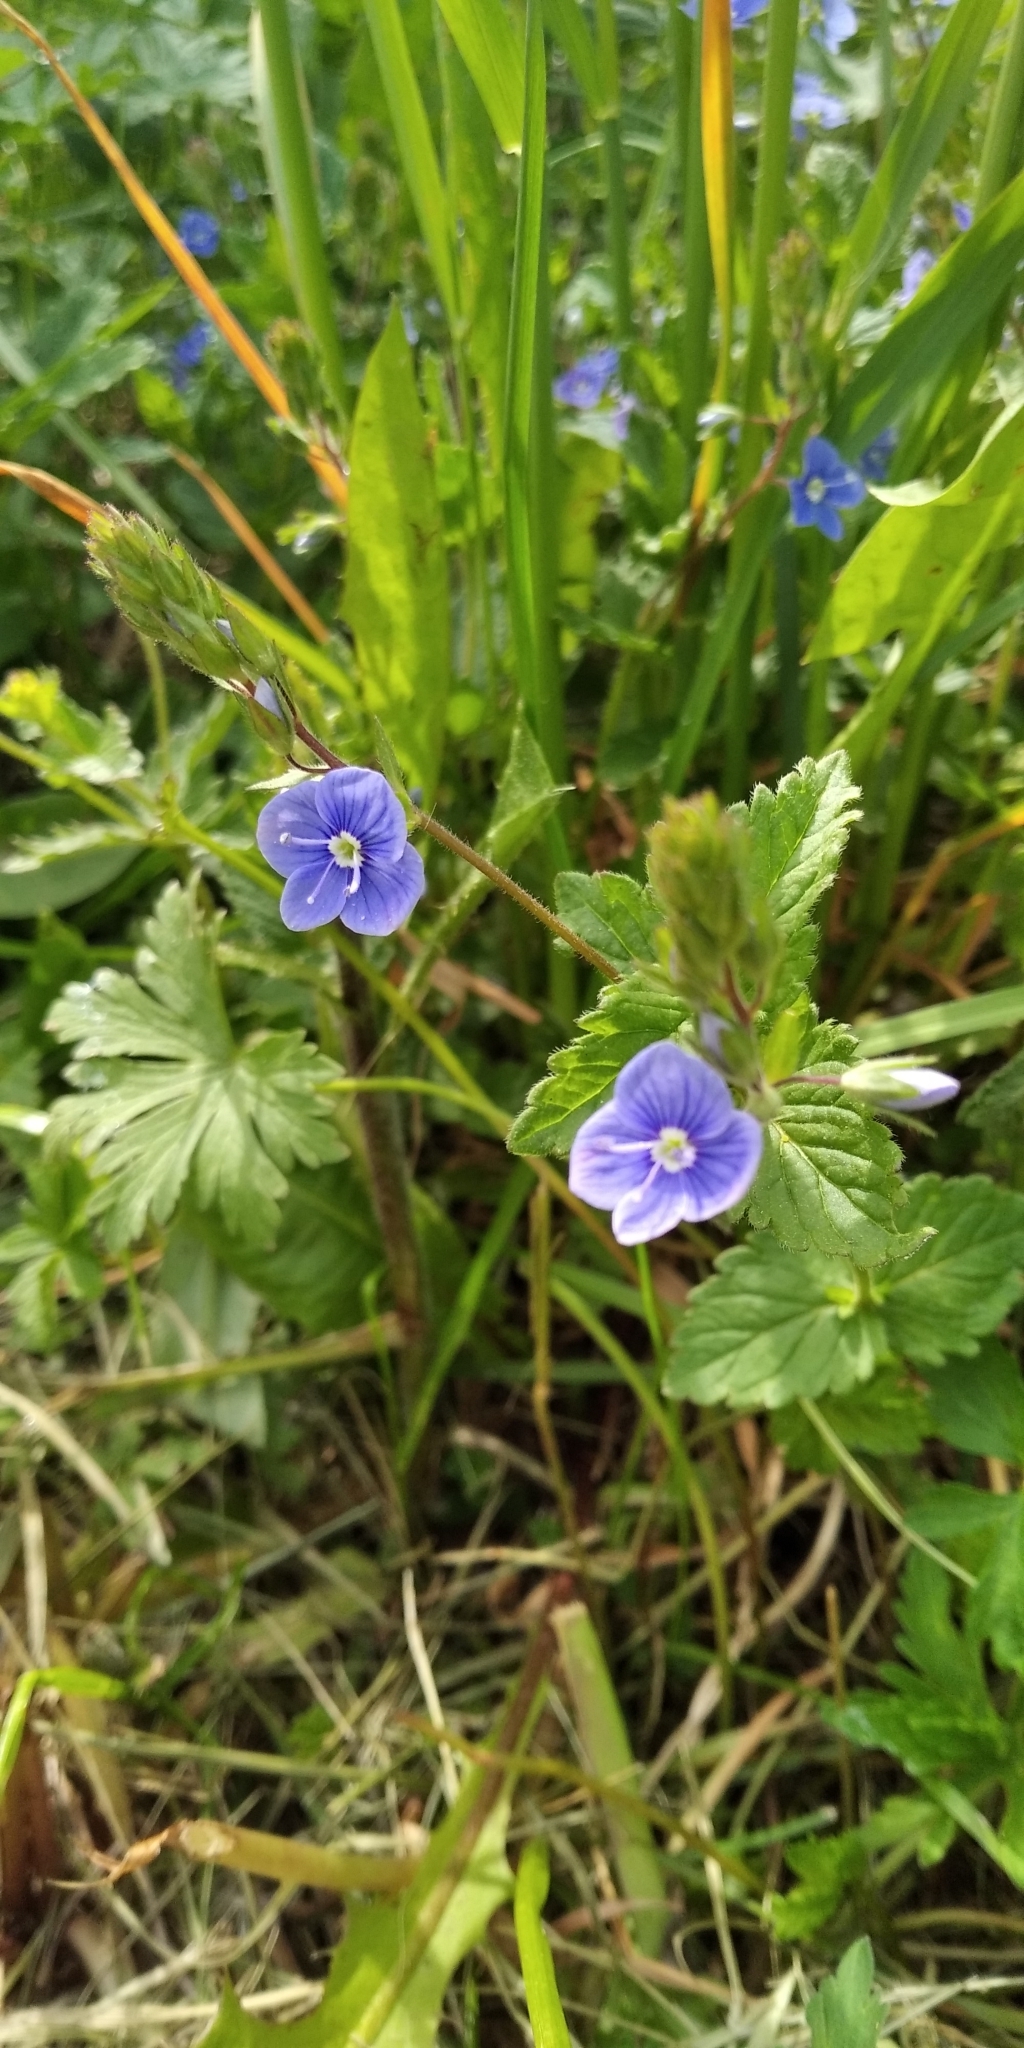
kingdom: Plantae
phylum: Tracheophyta
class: Magnoliopsida
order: Lamiales
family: Plantaginaceae
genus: Veronica
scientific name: Veronica chamaedrys
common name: Germander speedwell
